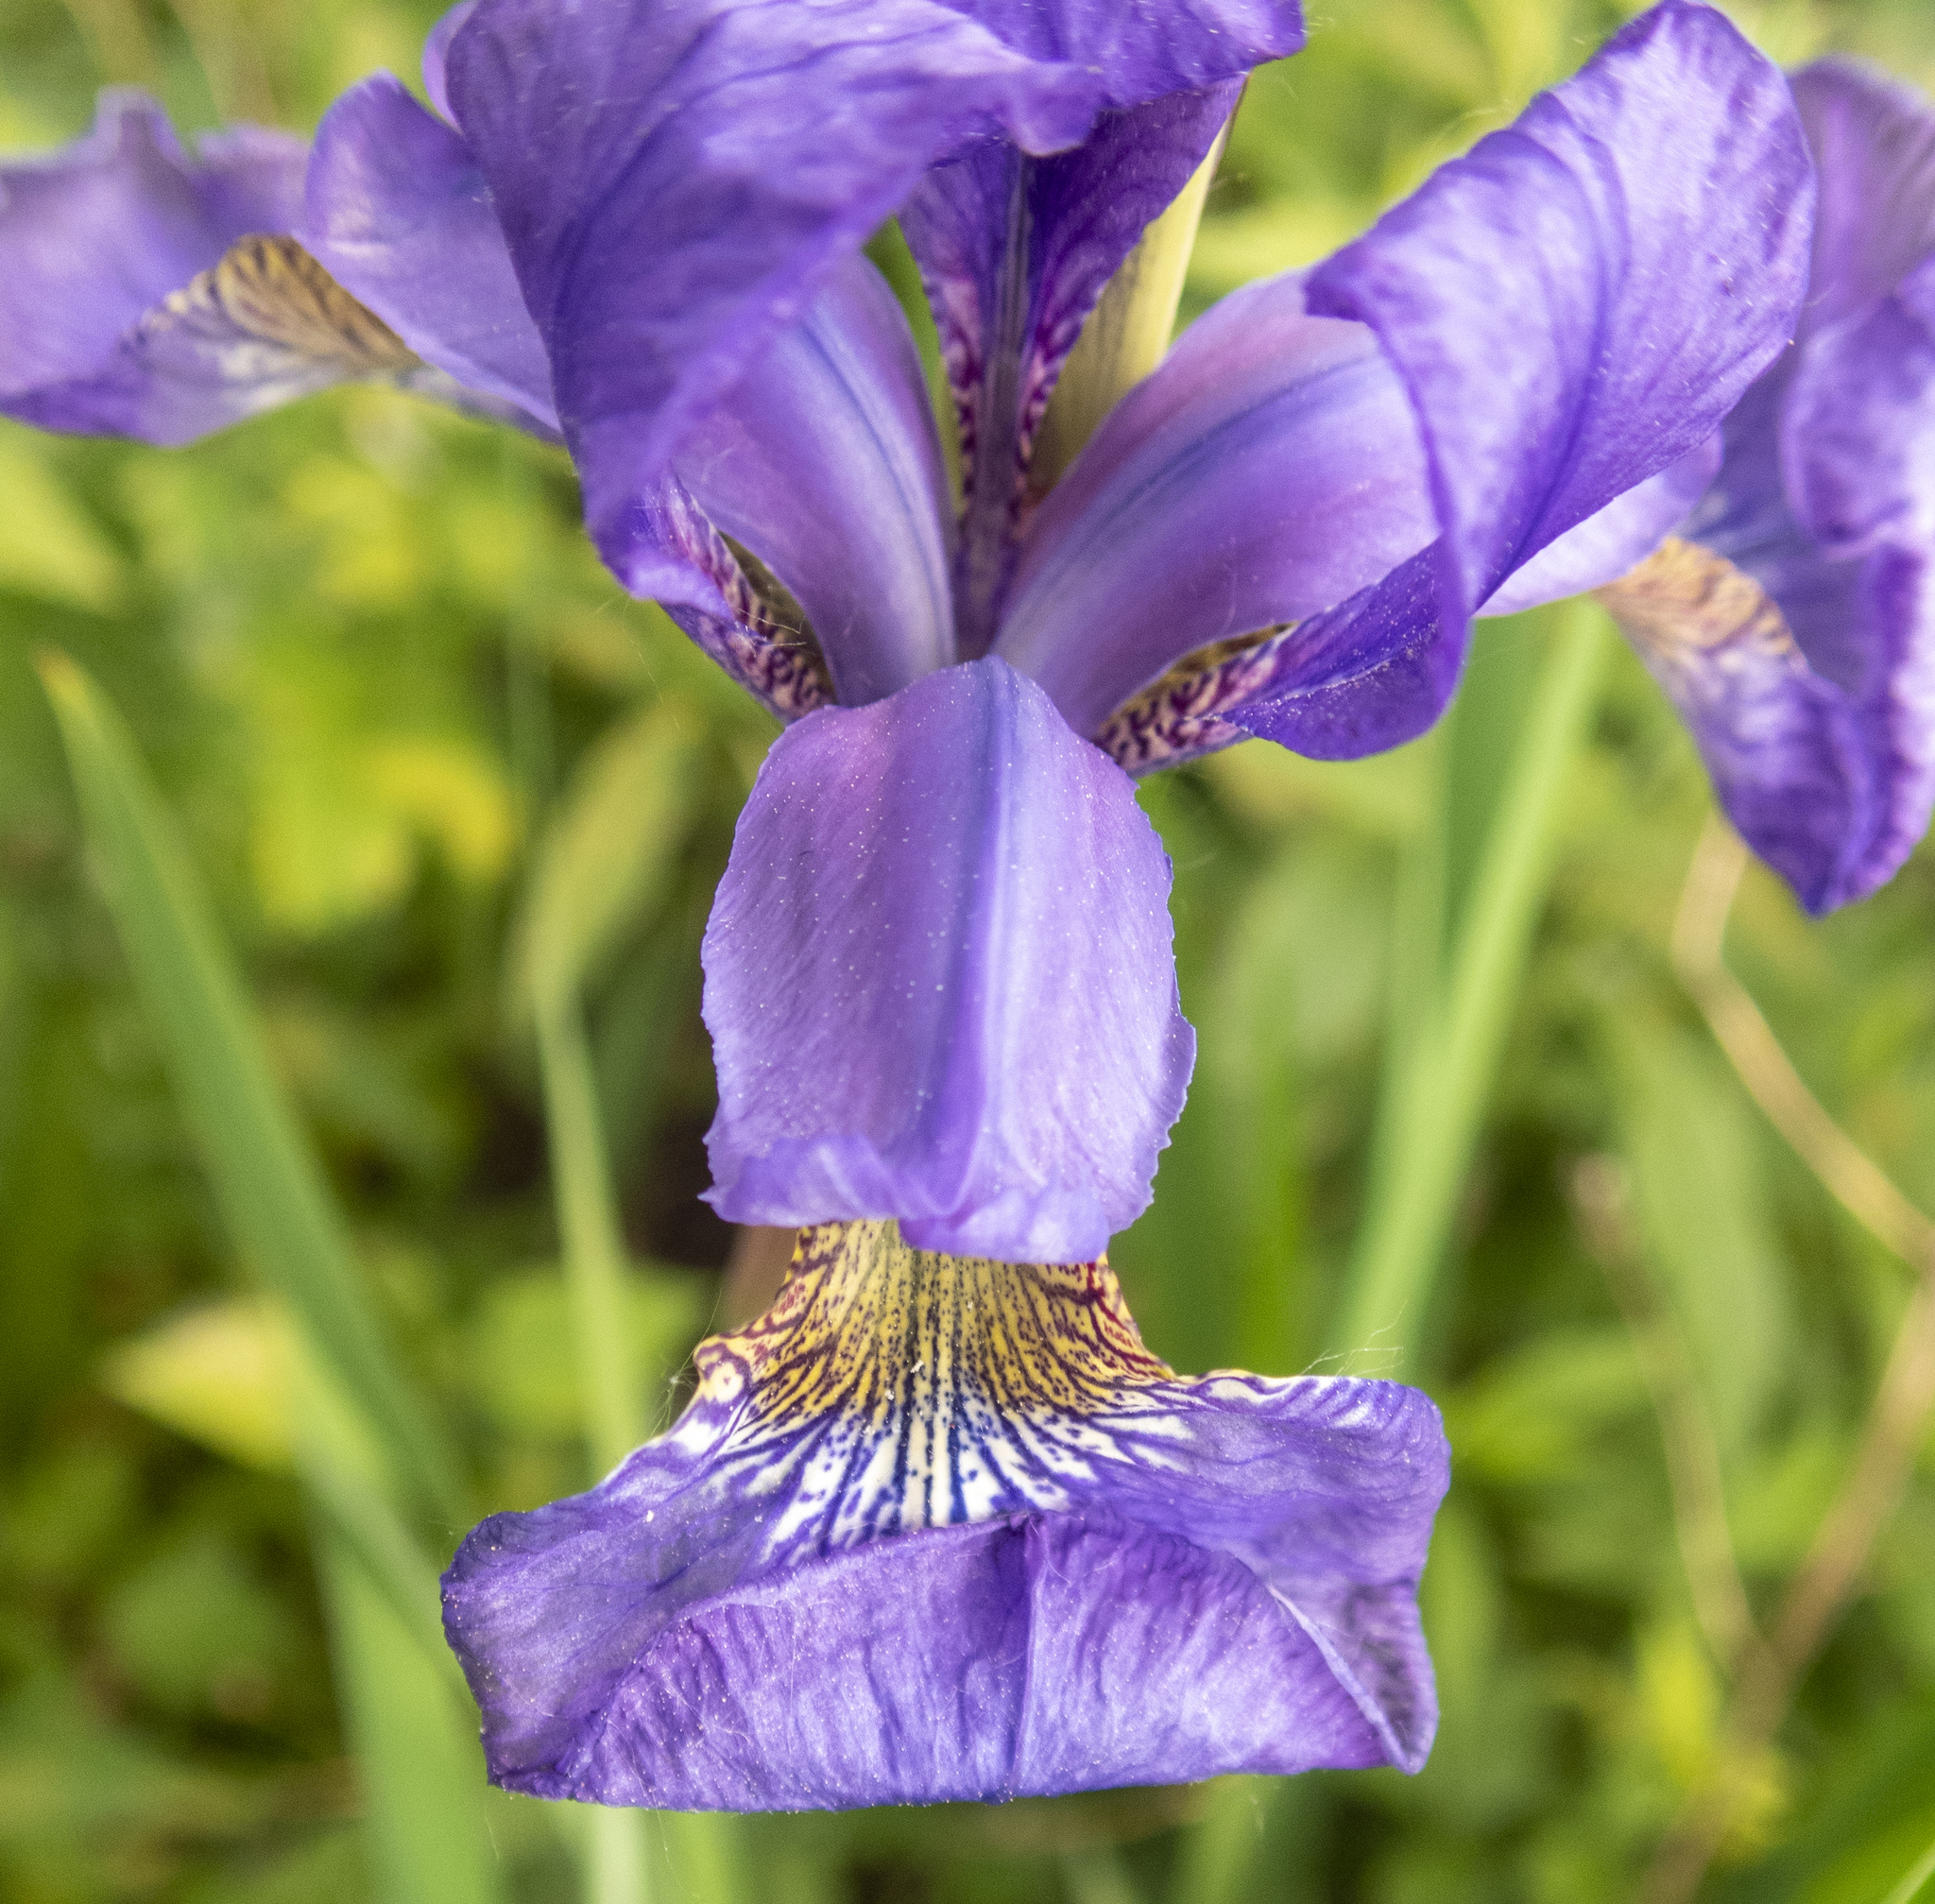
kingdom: Plantae
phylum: Tracheophyta
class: Liliopsida
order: Asparagales
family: Iridaceae
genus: Iris
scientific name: Iris sanguinea
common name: Blood iris
